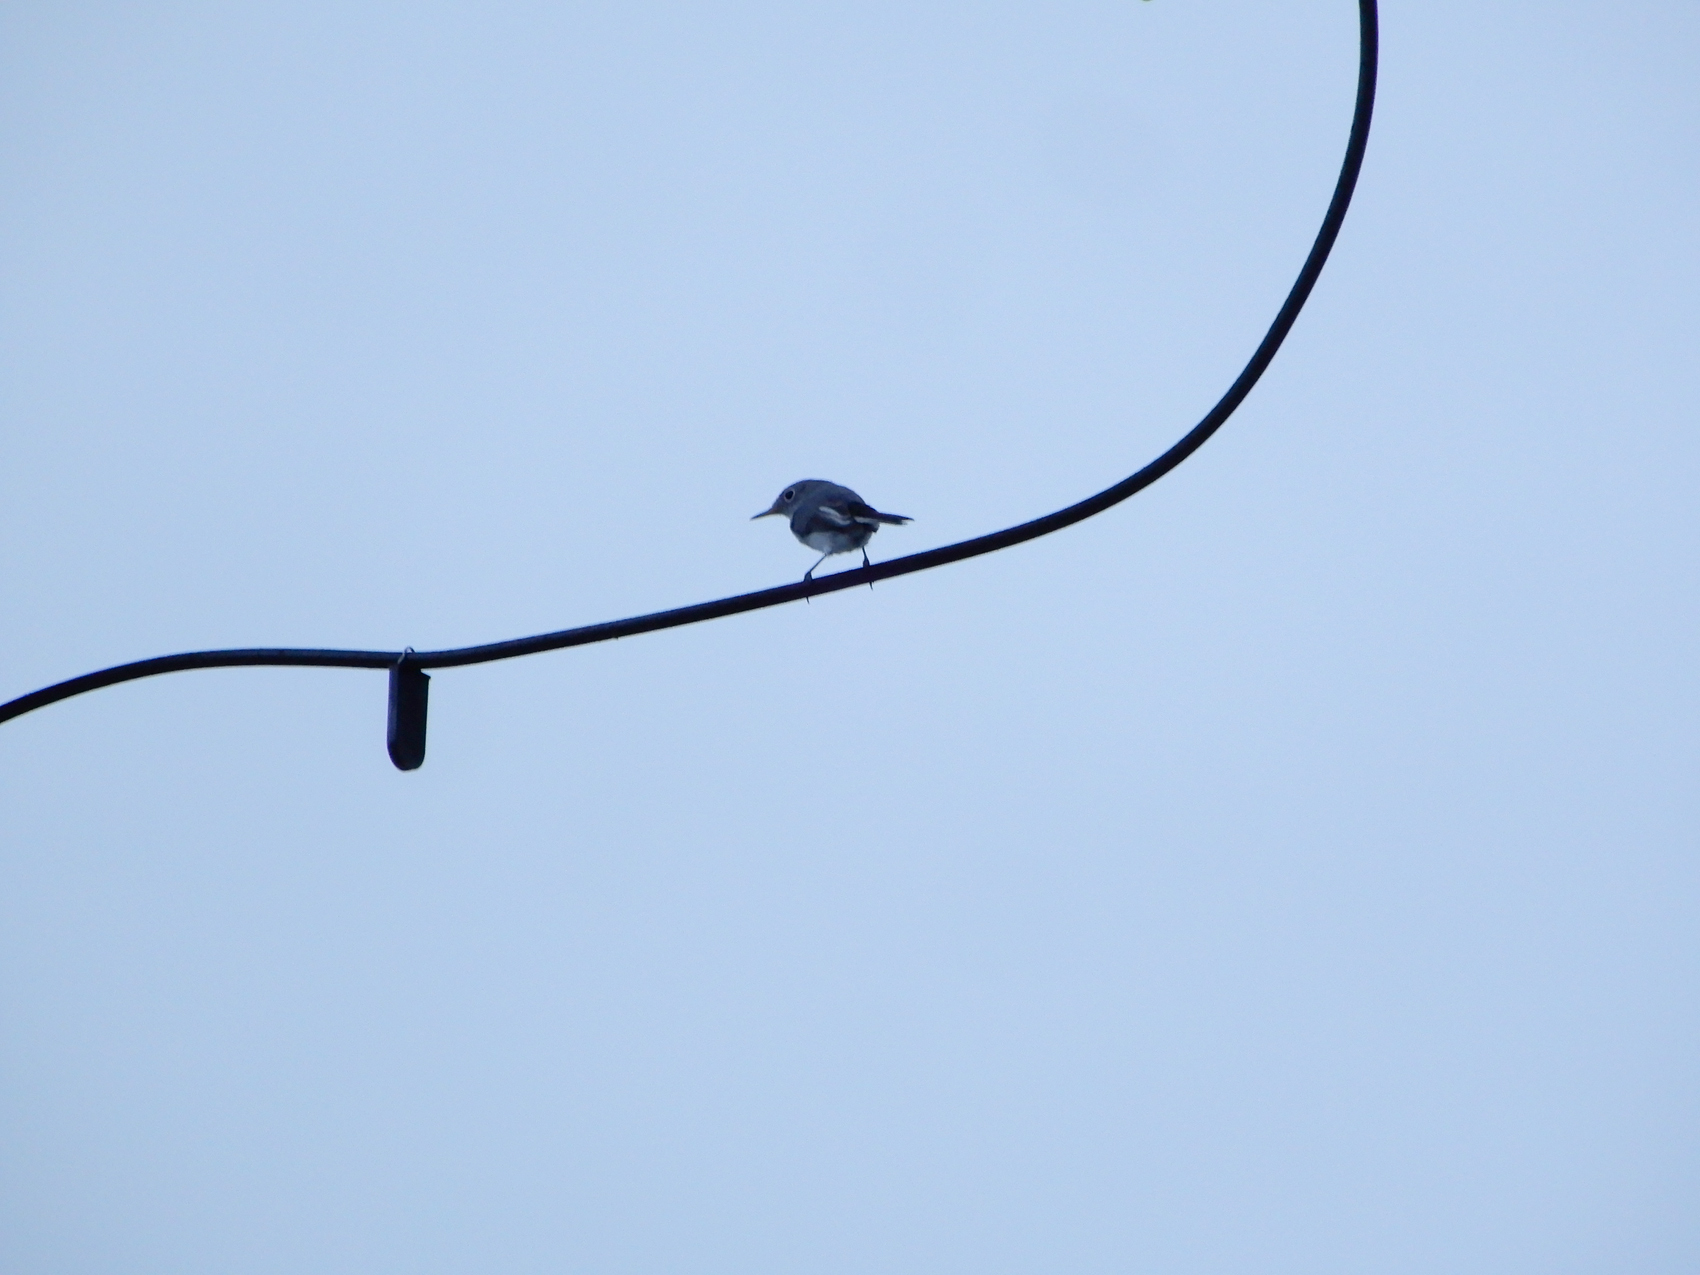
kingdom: Animalia
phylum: Chordata
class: Aves
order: Passeriformes
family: Polioptilidae
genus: Polioptila
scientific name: Polioptila caerulea
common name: Blue-gray gnatcatcher
